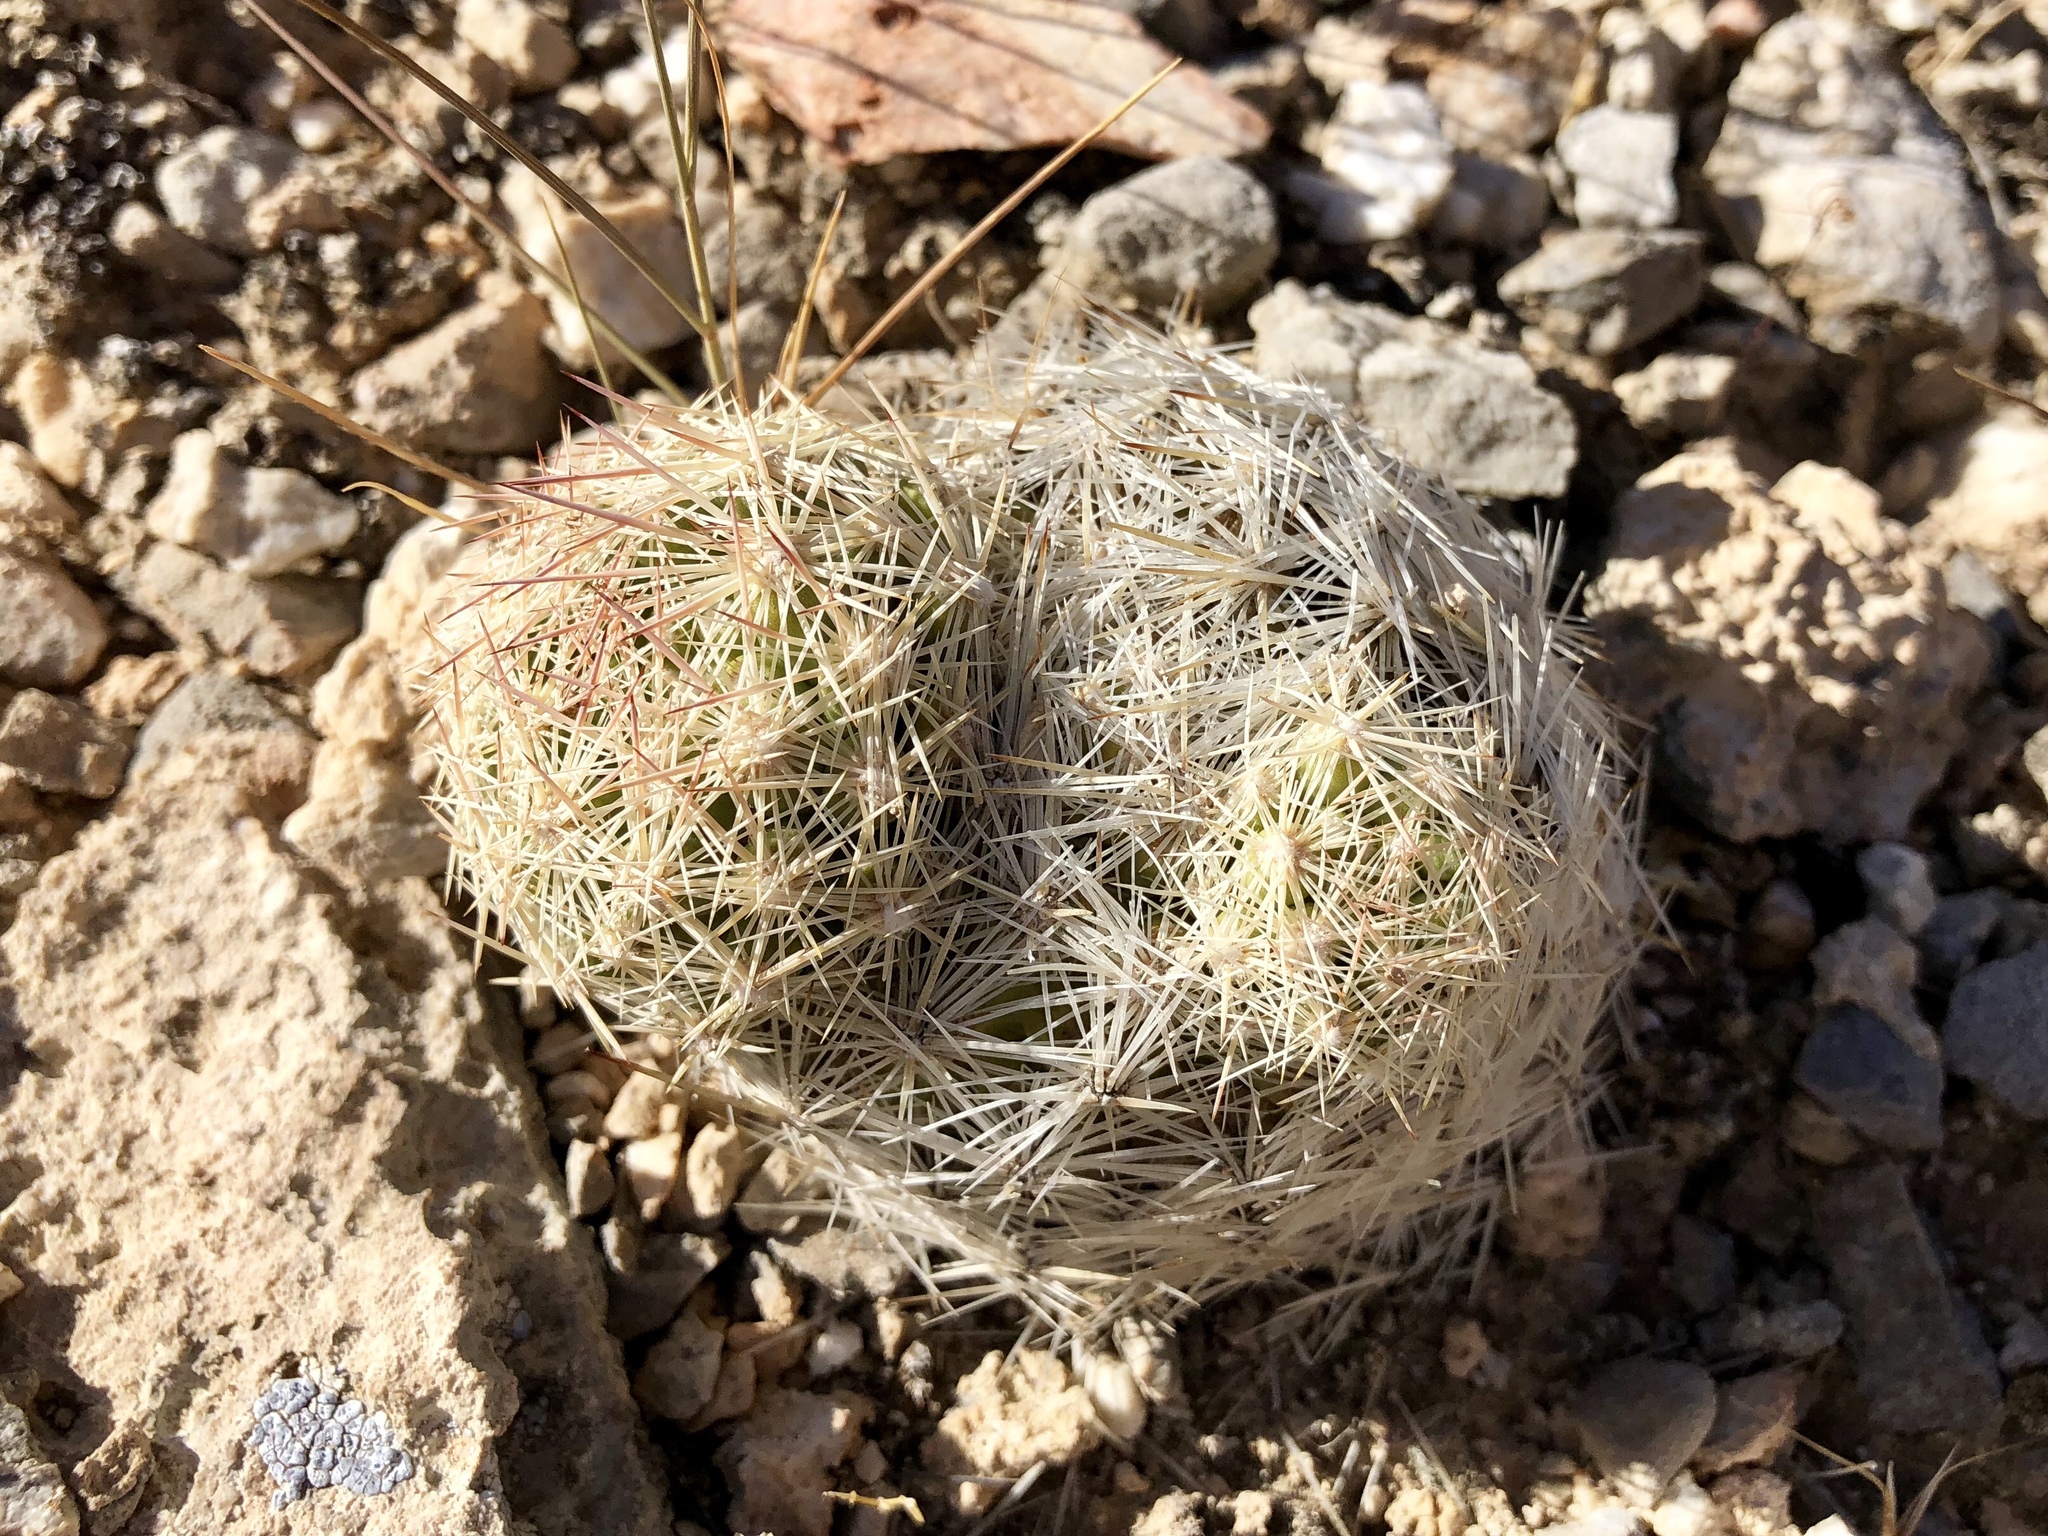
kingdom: Plantae
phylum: Tracheophyta
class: Magnoliopsida
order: Caryophyllales
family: Cactaceae
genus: Pelecyphora
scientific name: Pelecyphora dasyacantha
